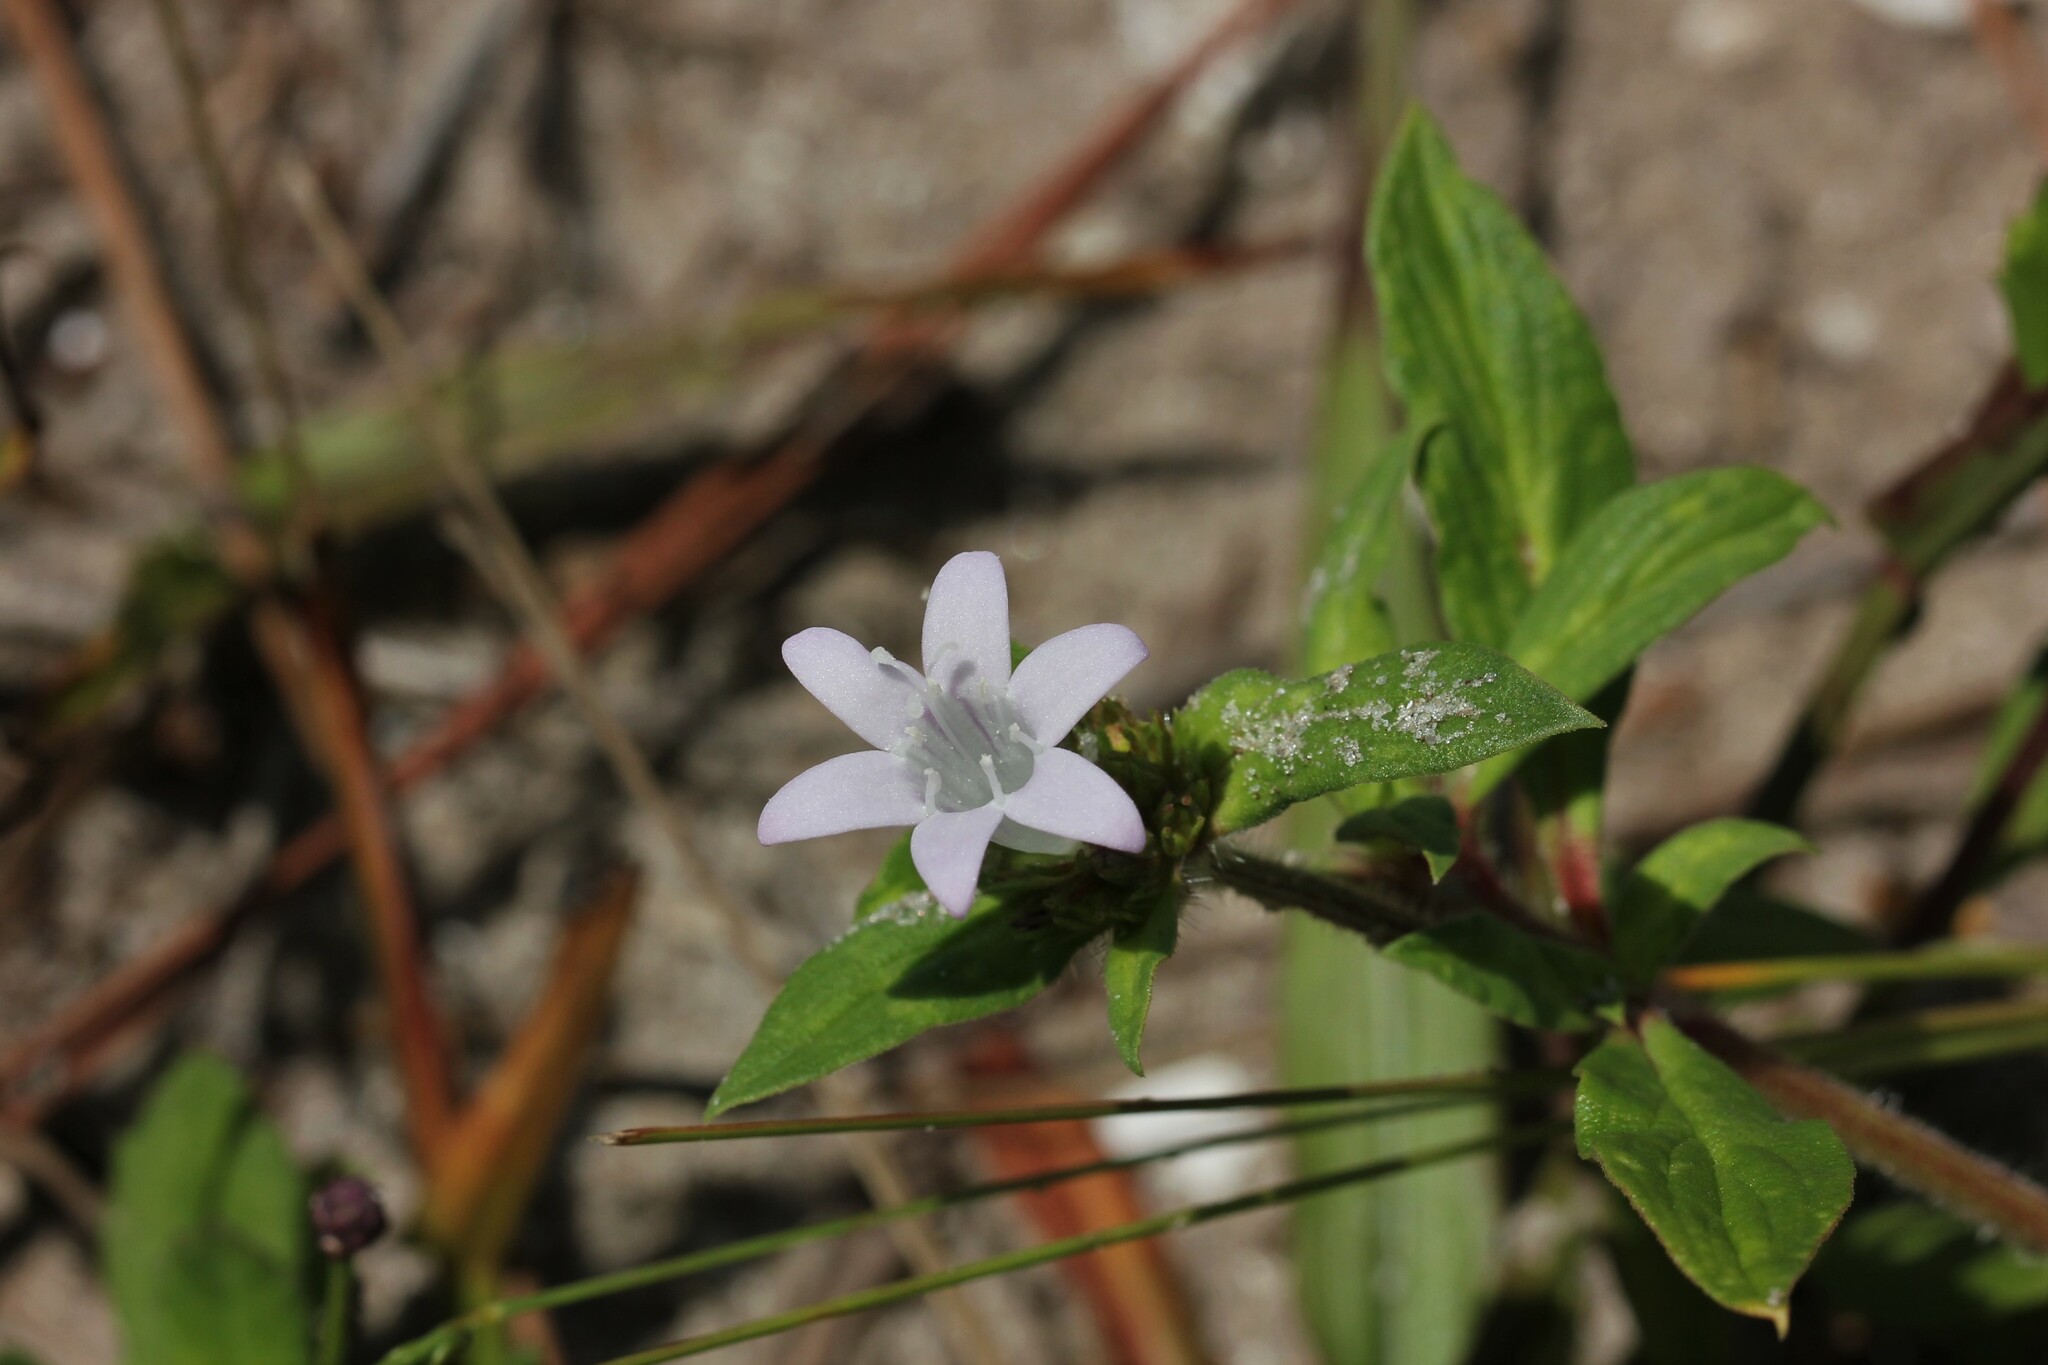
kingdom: Plantae
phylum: Tracheophyta
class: Magnoliopsida
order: Gentianales
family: Rubiaceae
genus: Richardia
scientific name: Richardia grandiflora
